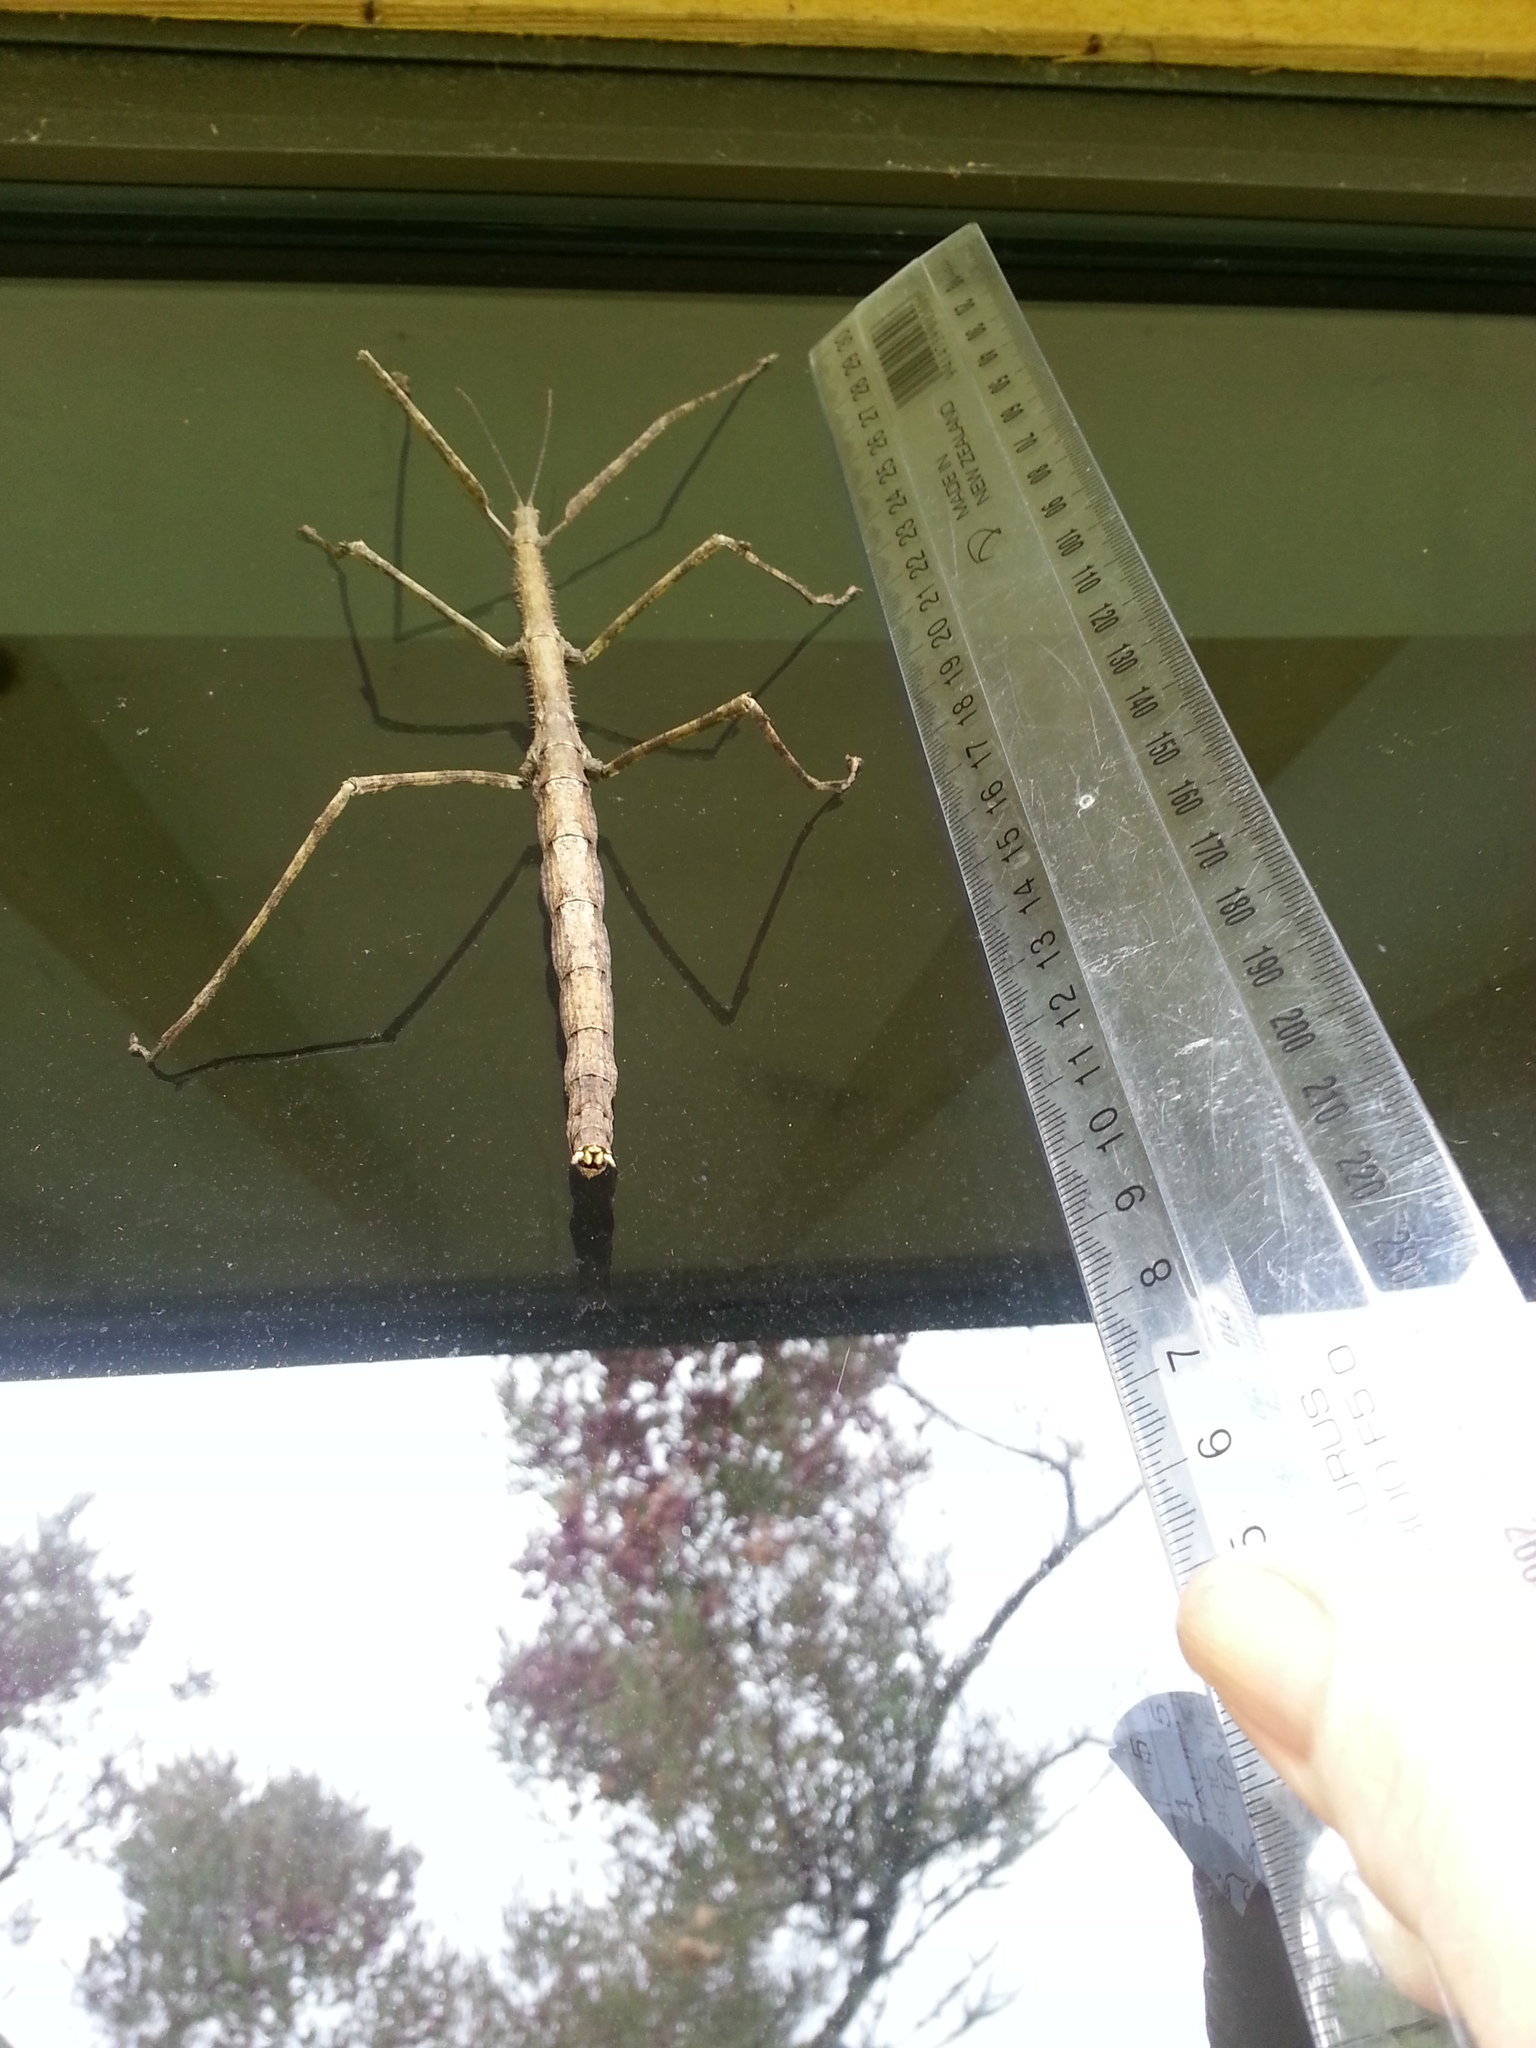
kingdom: Animalia
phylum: Arthropoda
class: Insecta
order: Phasmida
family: Phasmatidae
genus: Argosarchus
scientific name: Argosarchus horridus
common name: Bristly stick insect
